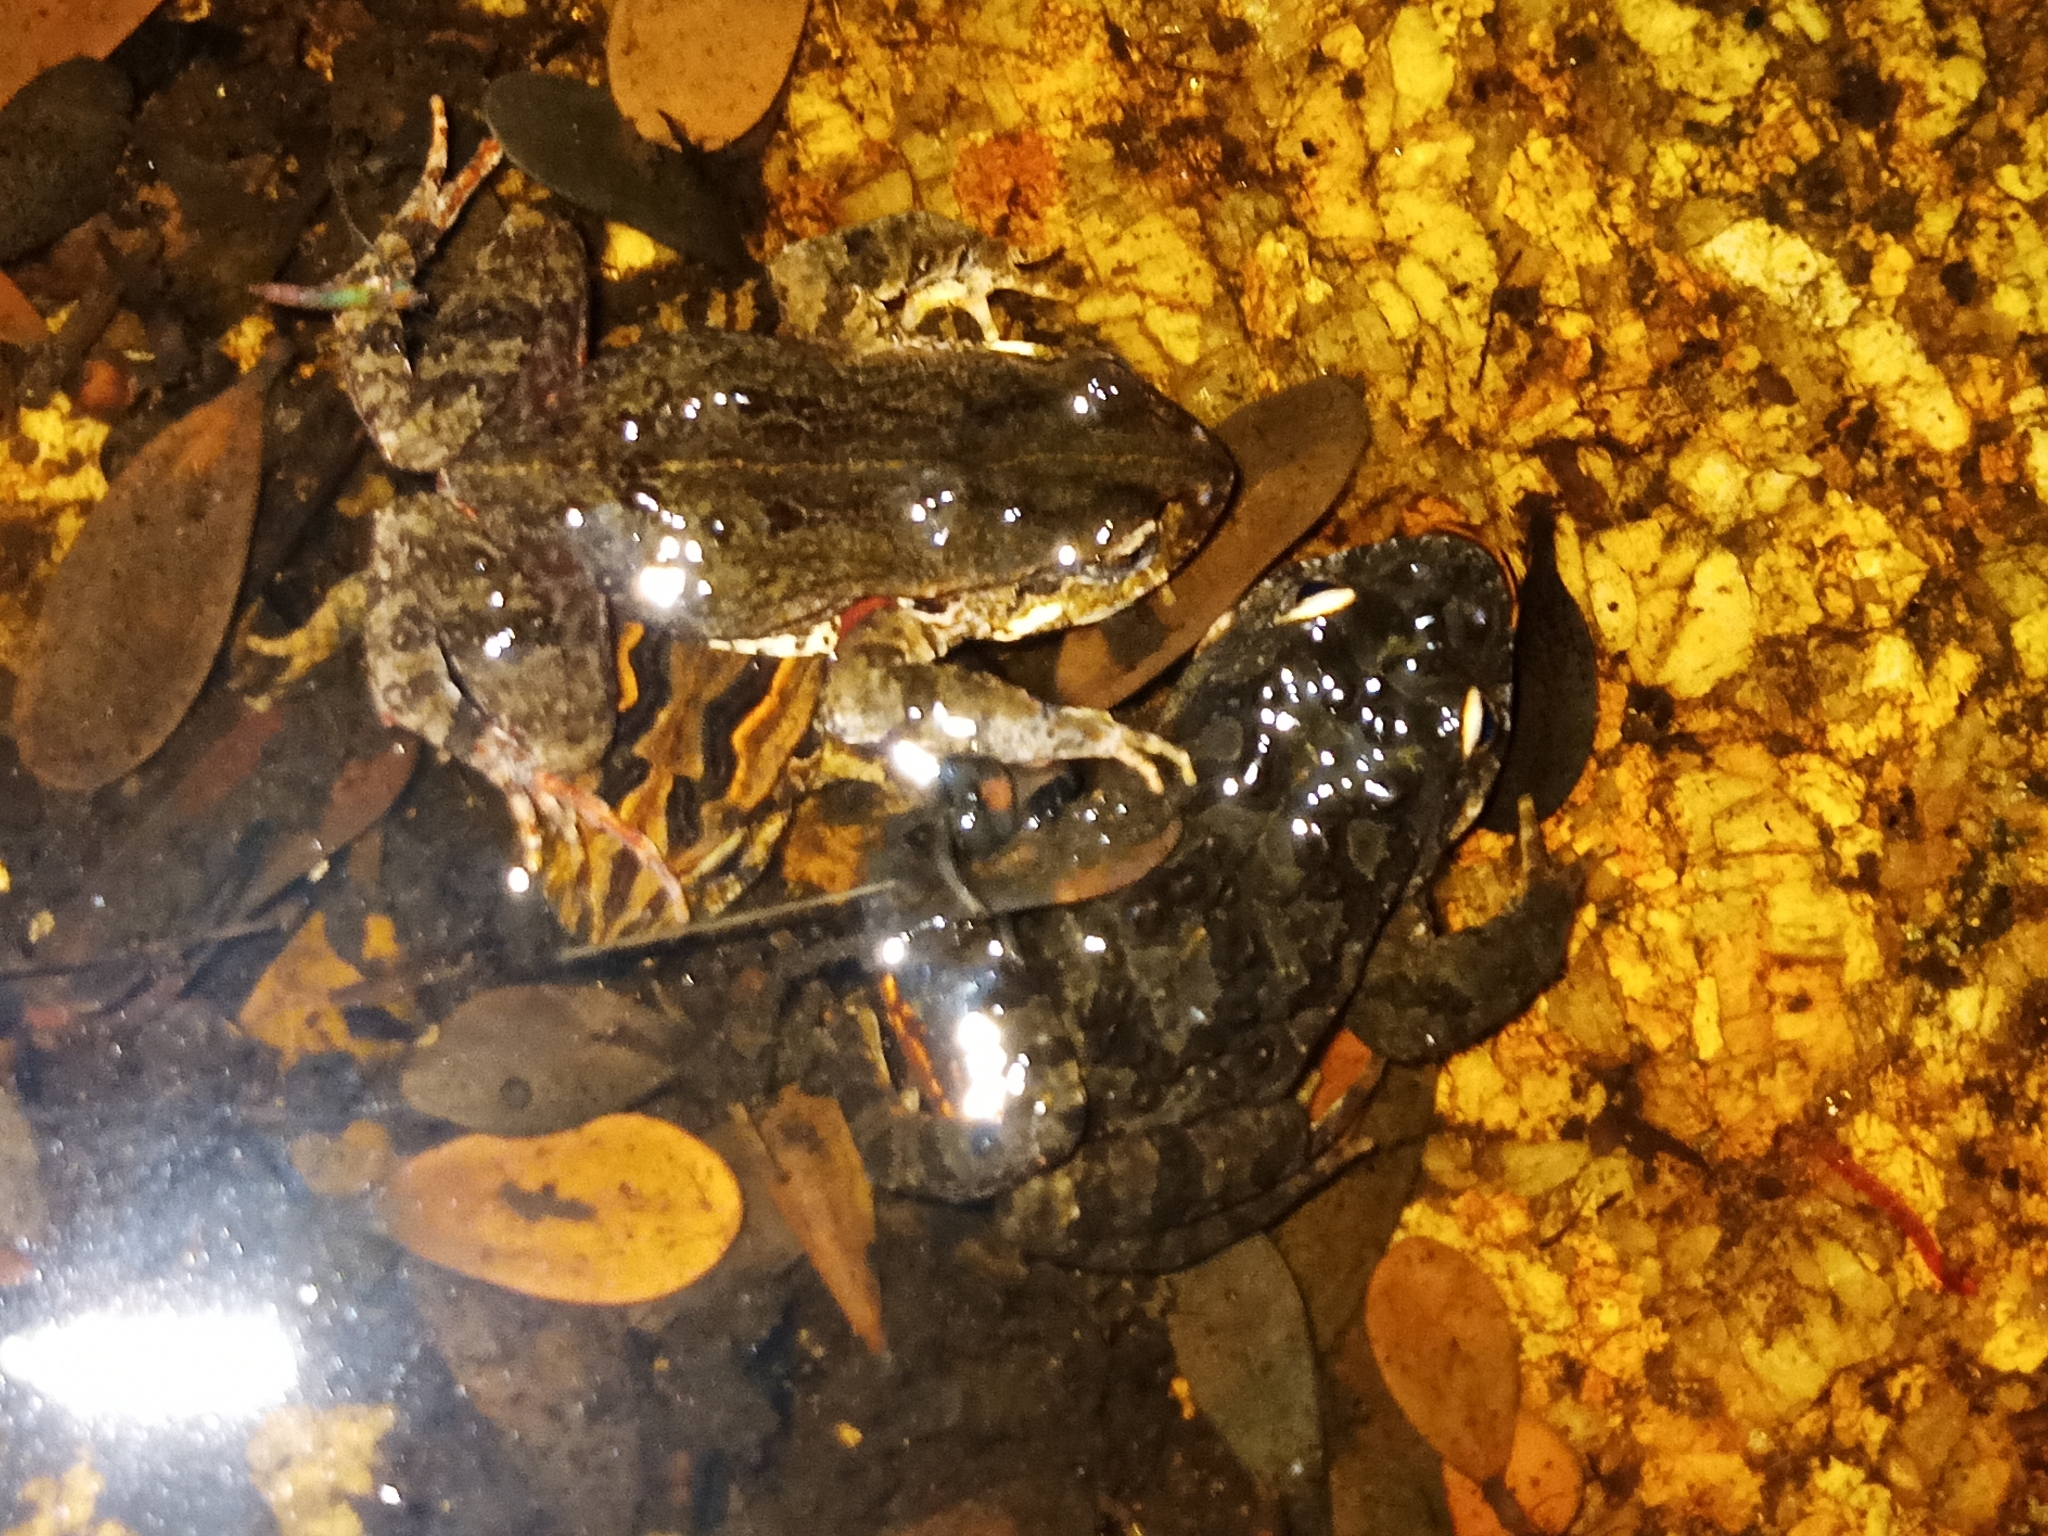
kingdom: Animalia
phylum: Chordata
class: Amphibia
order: Anura
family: Myobatrachidae
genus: Crinia
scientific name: Crinia georgiana
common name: Quacking frog
